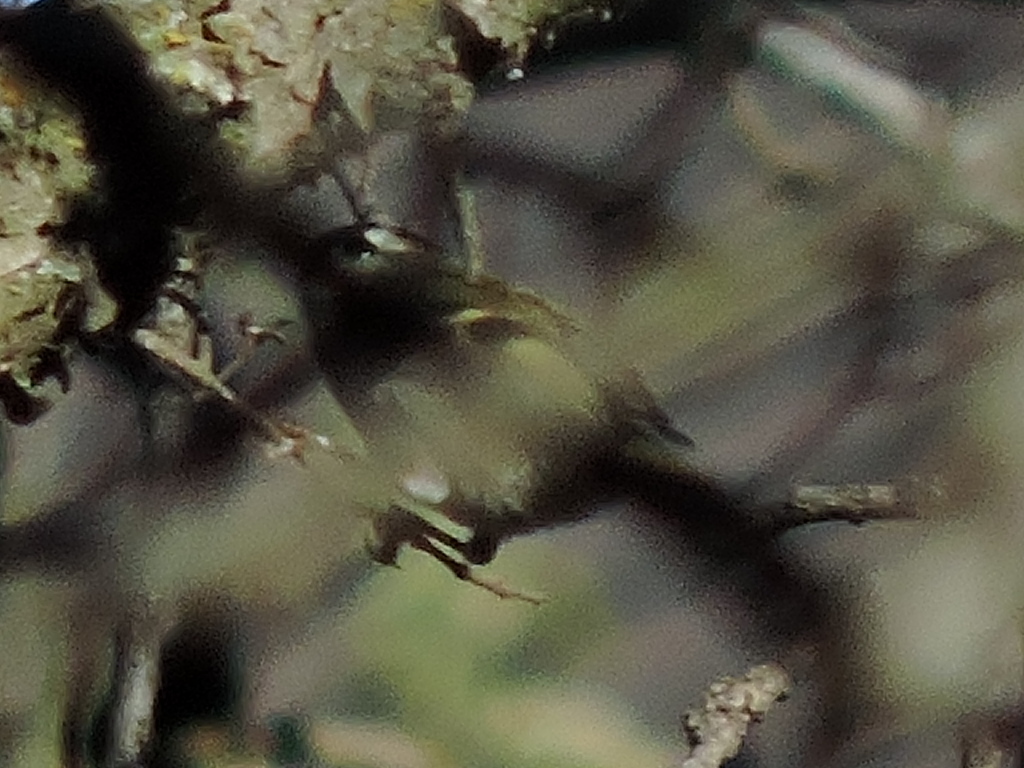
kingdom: Animalia
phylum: Chordata
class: Aves
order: Passeriformes
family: Regulidae
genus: Regulus
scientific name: Regulus satrapa
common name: Golden-crowned kinglet
